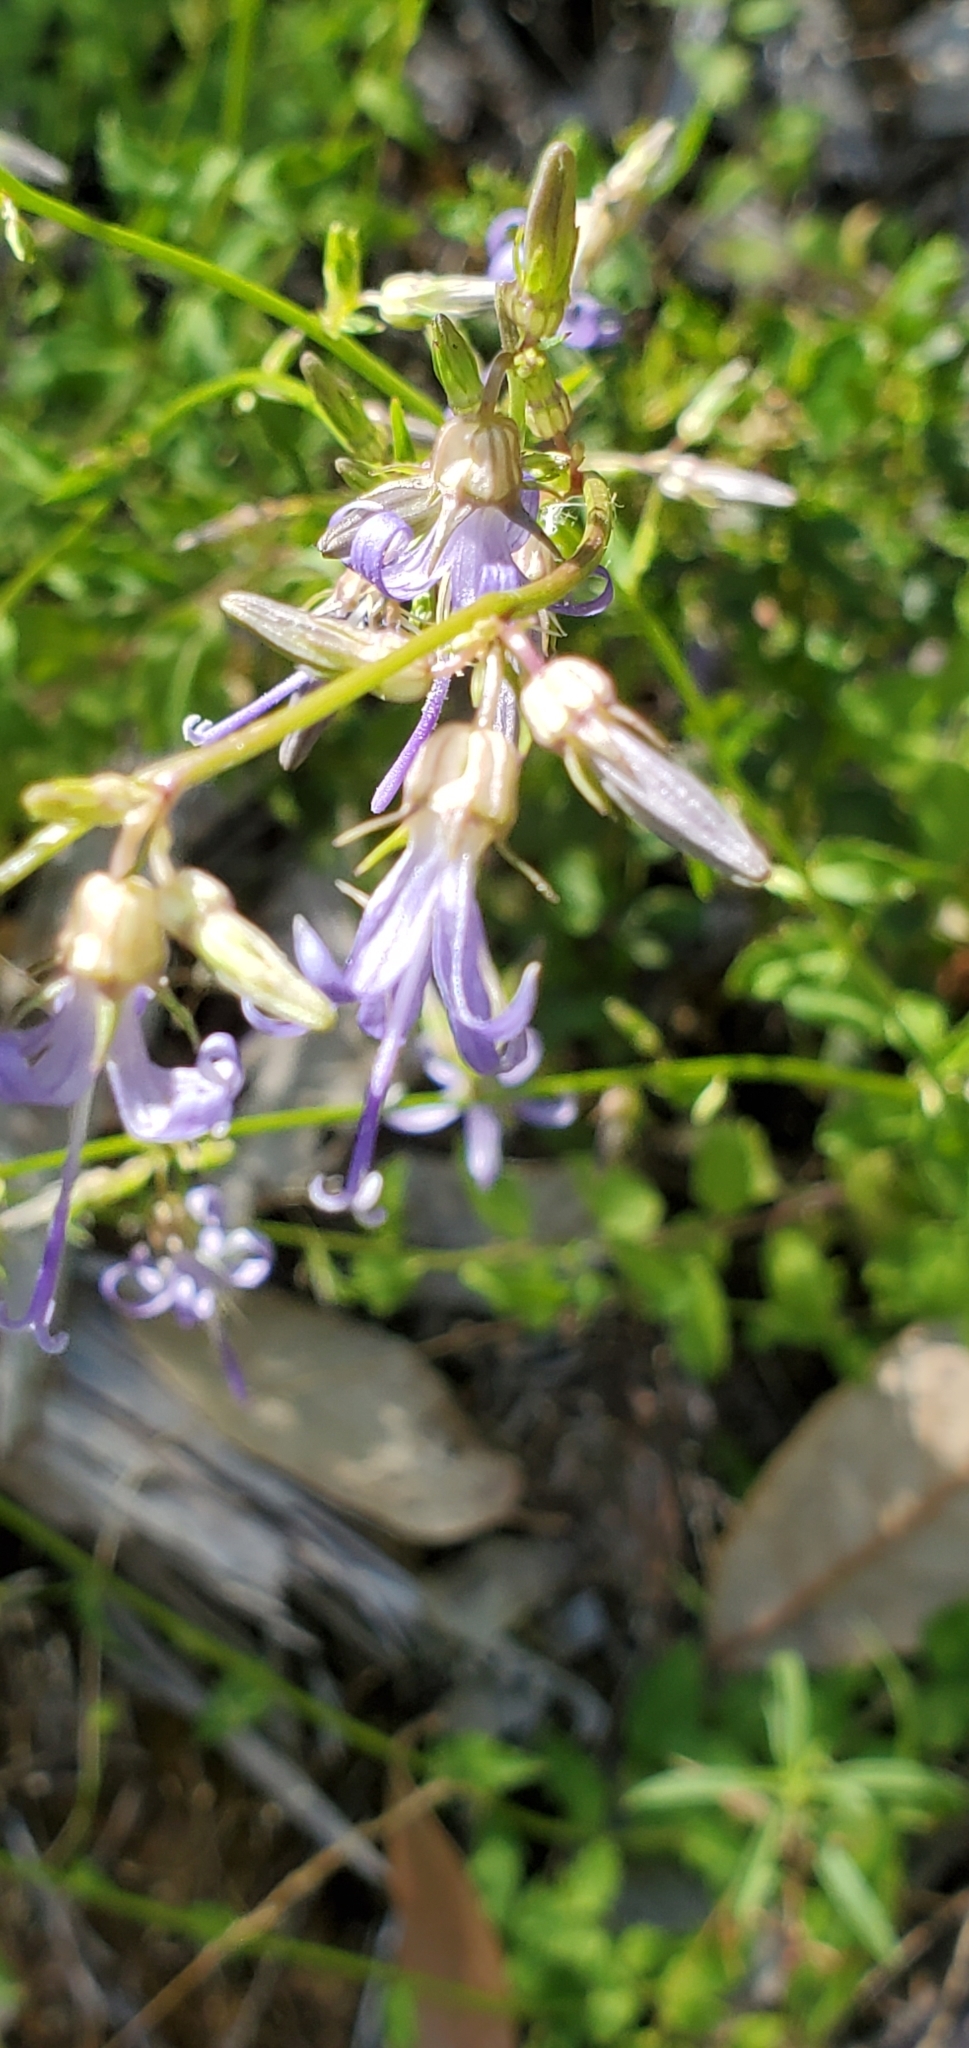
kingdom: Plantae
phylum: Tracheophyta
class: Magnoliopsida
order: Asterales
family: Campanulaceae
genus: Smithiastrum
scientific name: Smithiastrum prenanthoides
